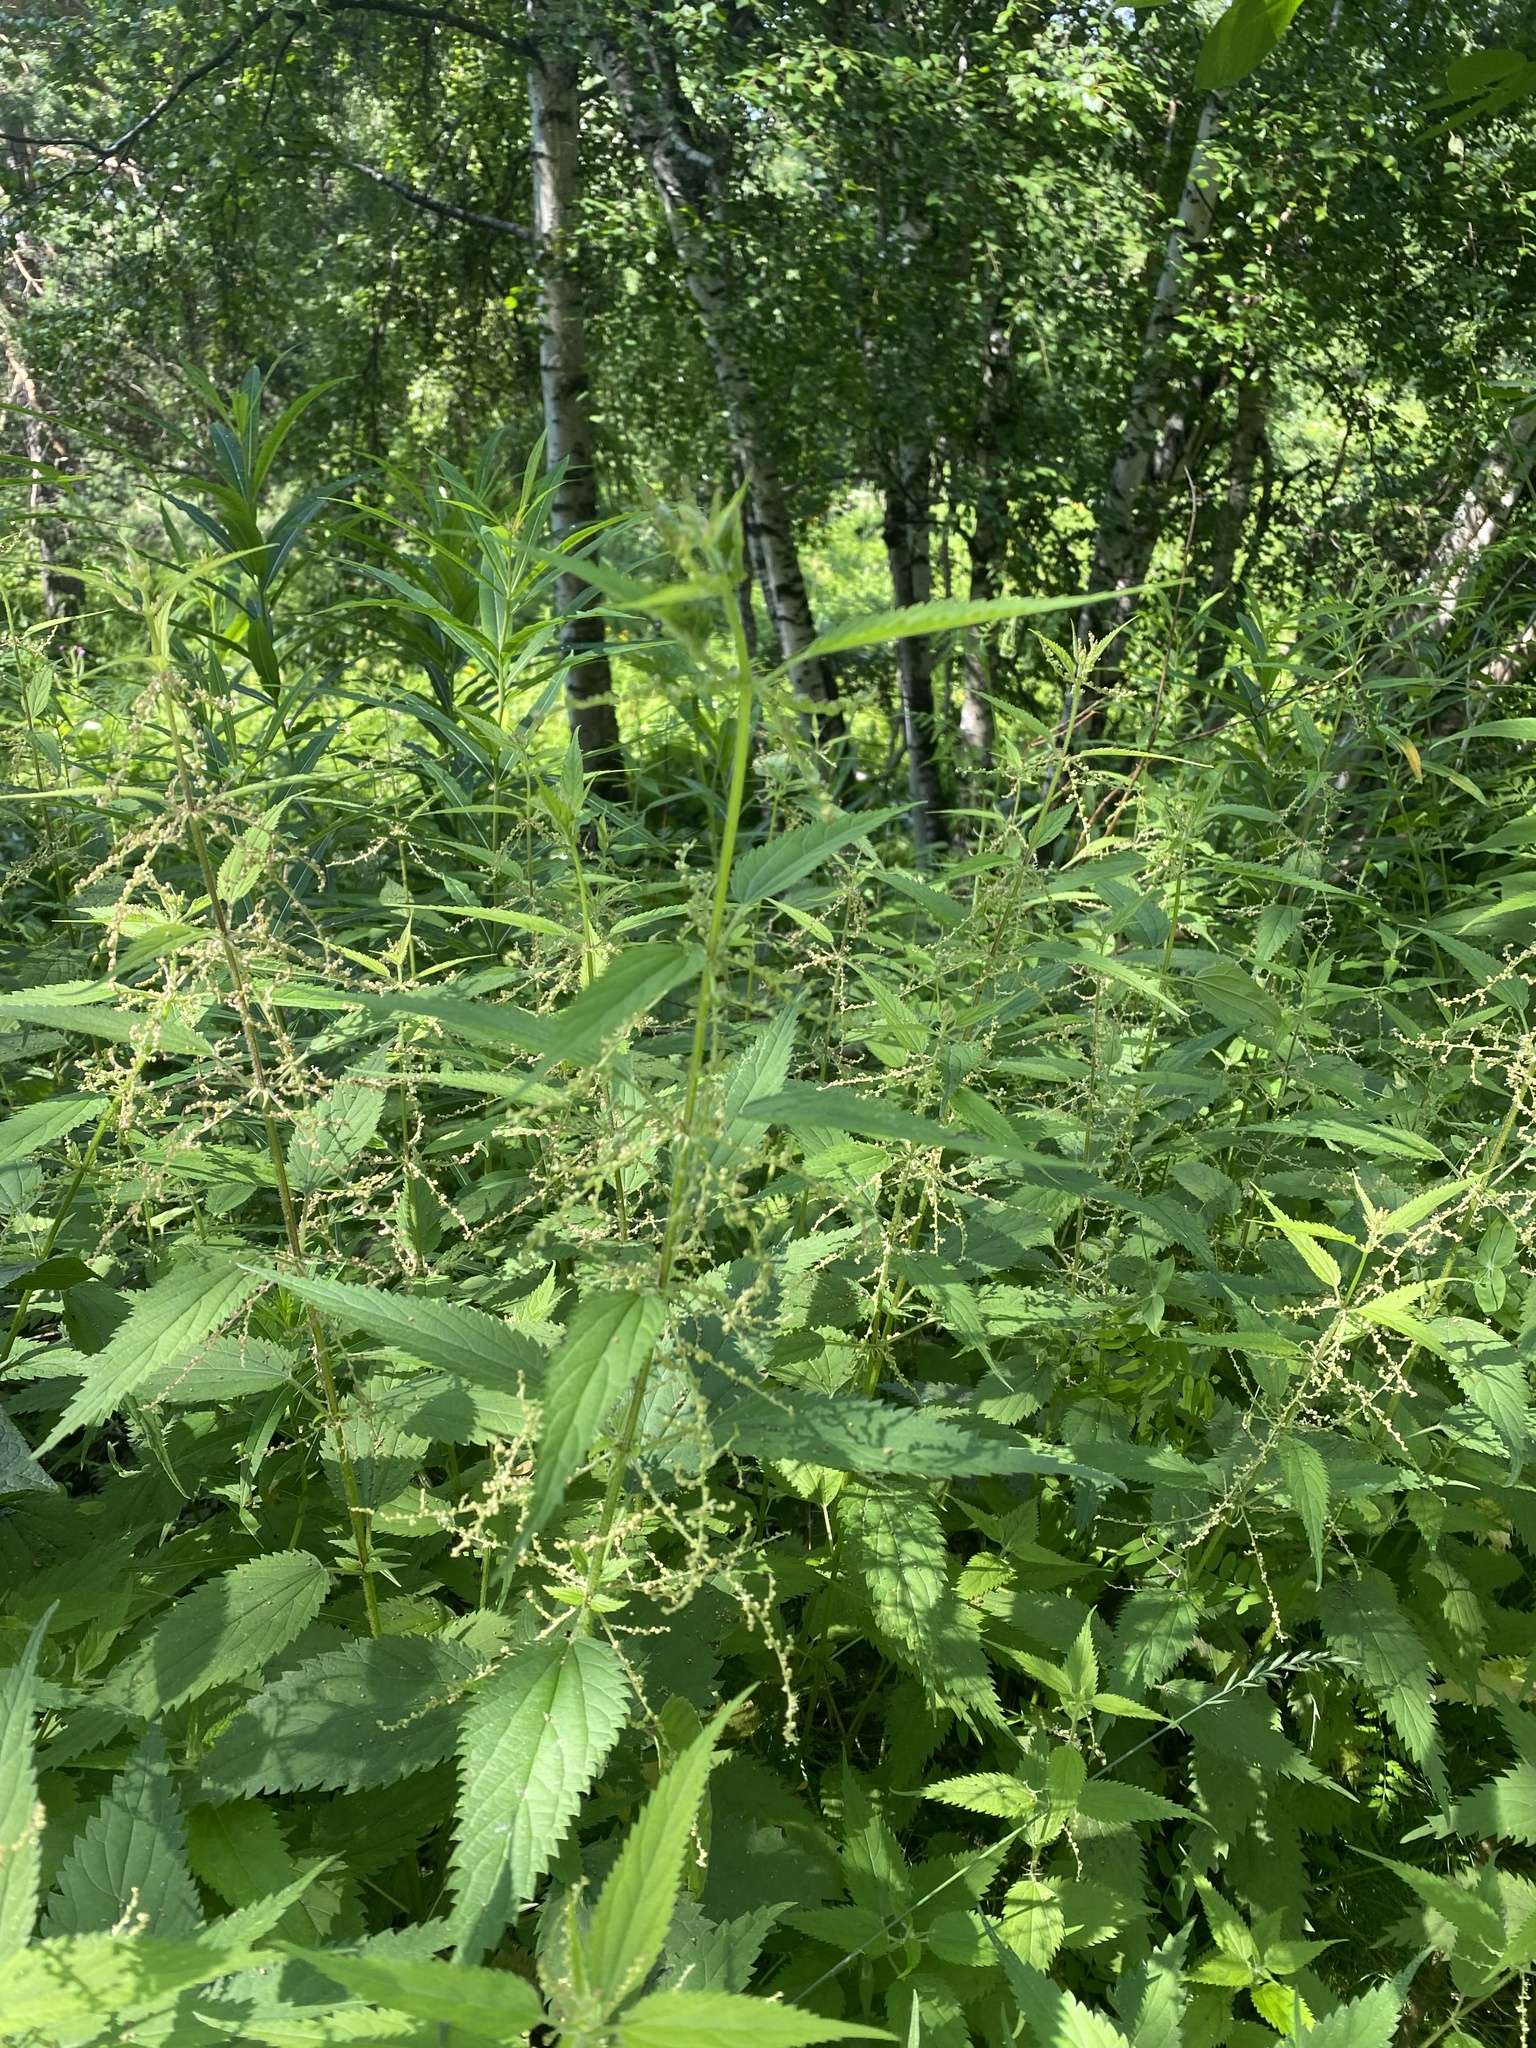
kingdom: Plantae
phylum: Tracheophyta
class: Magnoliopsida
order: Rosales
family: Urticaceae
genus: Urtica
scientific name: Urtica dioica
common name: Common nettle
